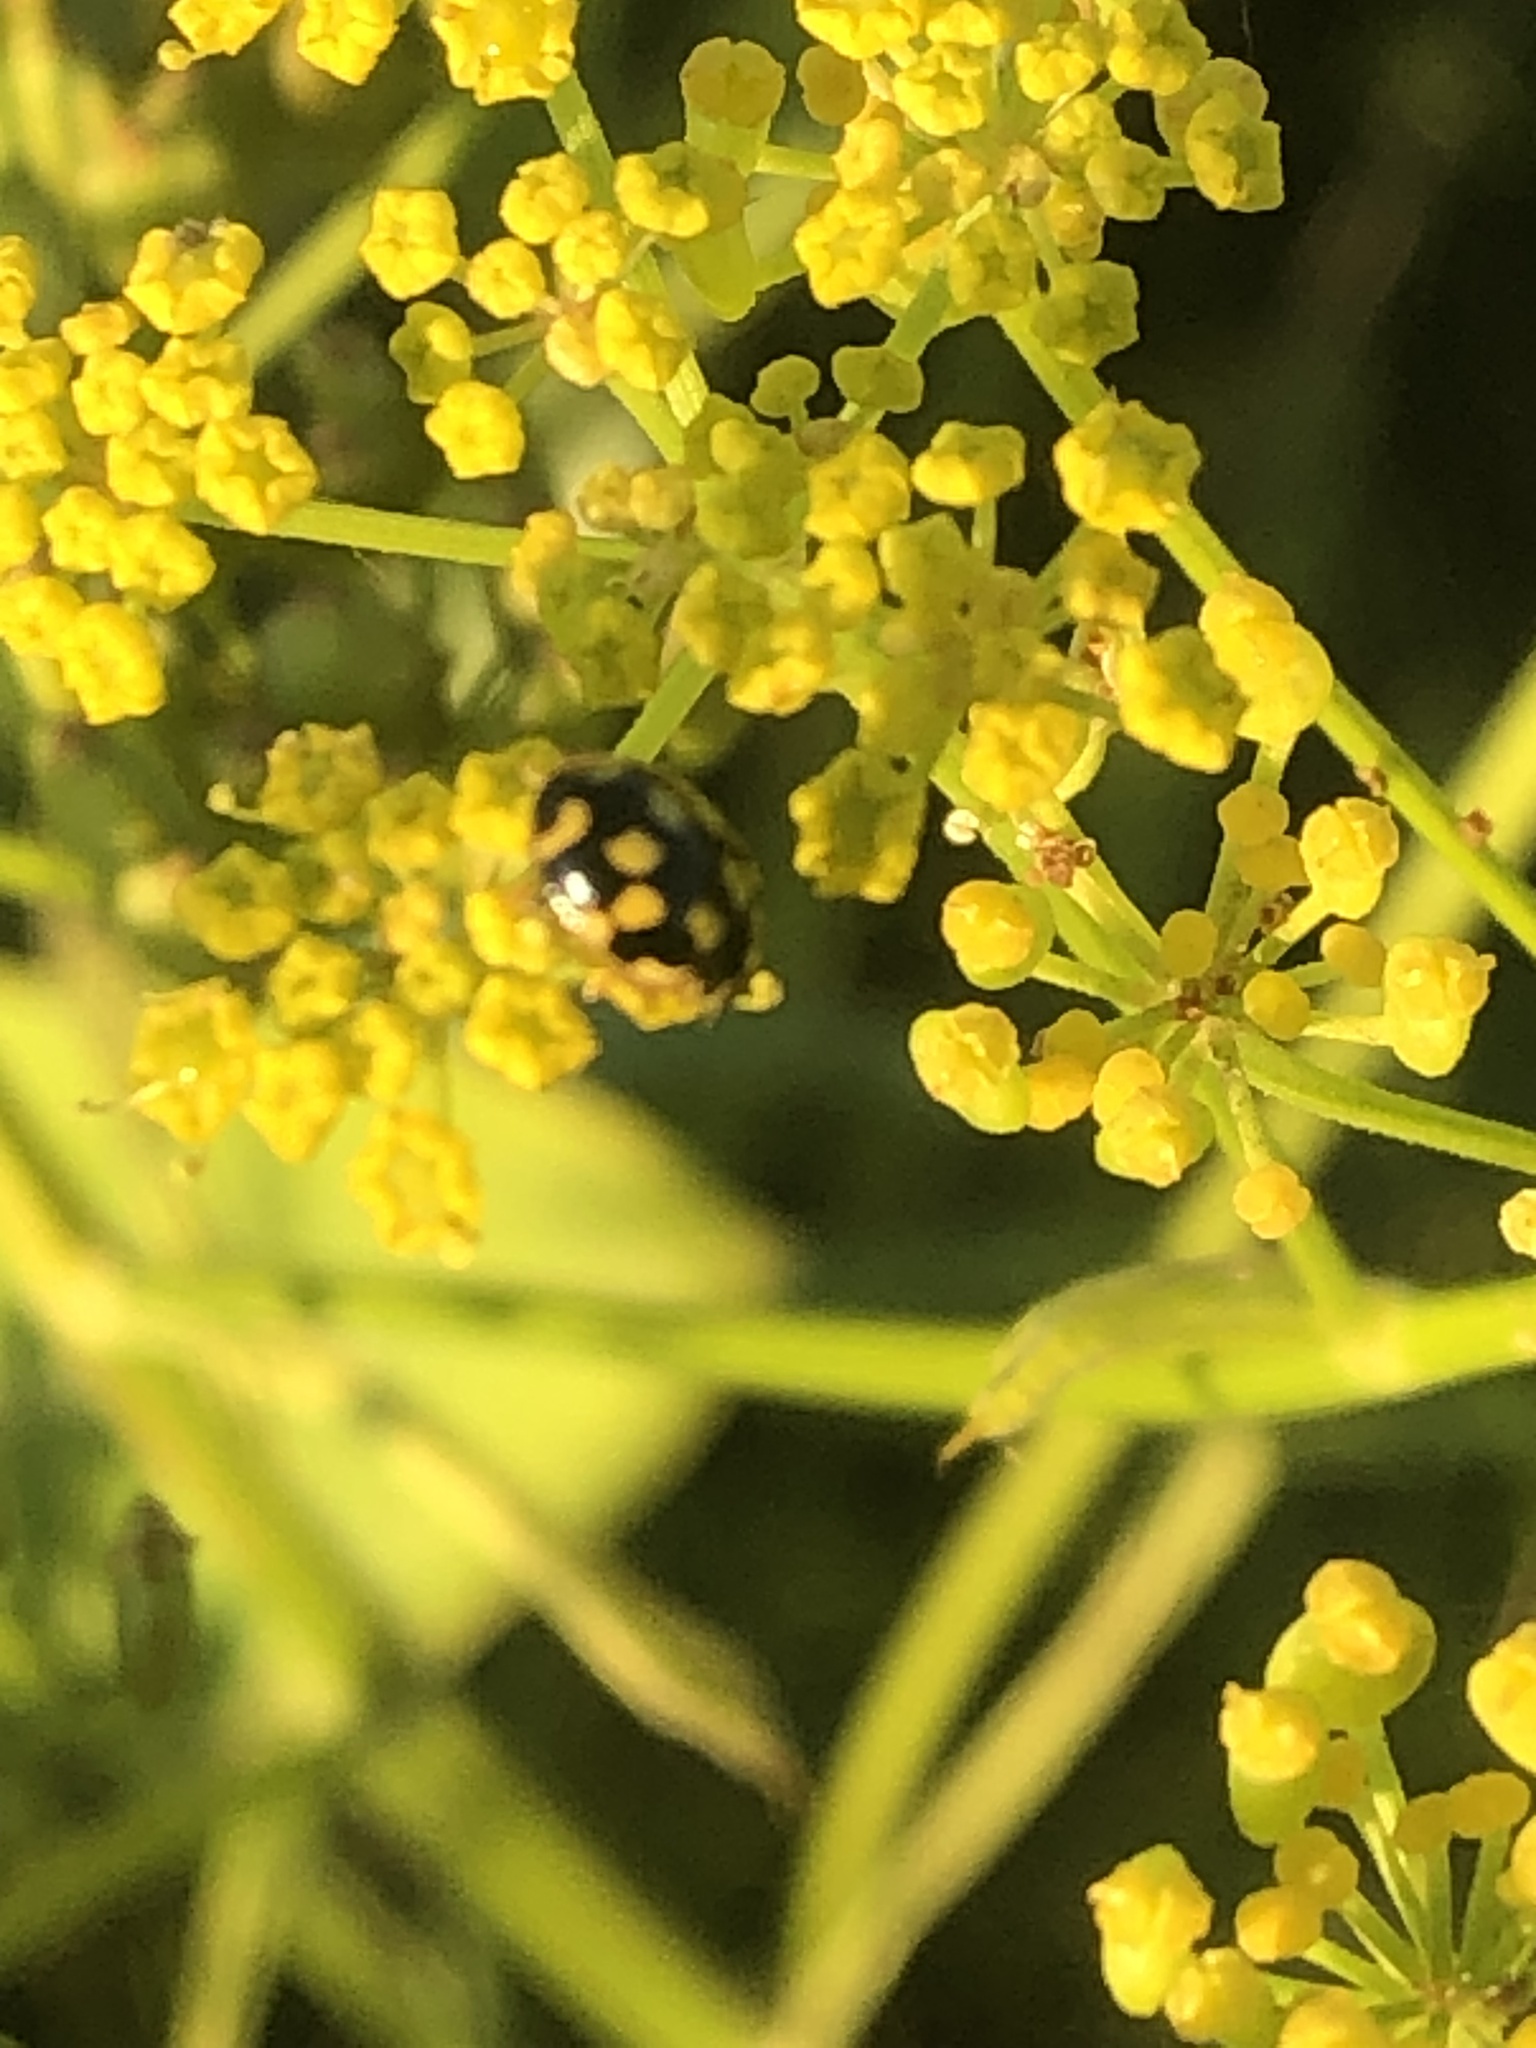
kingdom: Animalia
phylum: Arthropoda
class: Insecta
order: Coleoptera
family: Coccinellidae
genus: Propylaea
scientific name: Propylaea quatuordecimpunctata
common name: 14-spotted ladybird beetle
